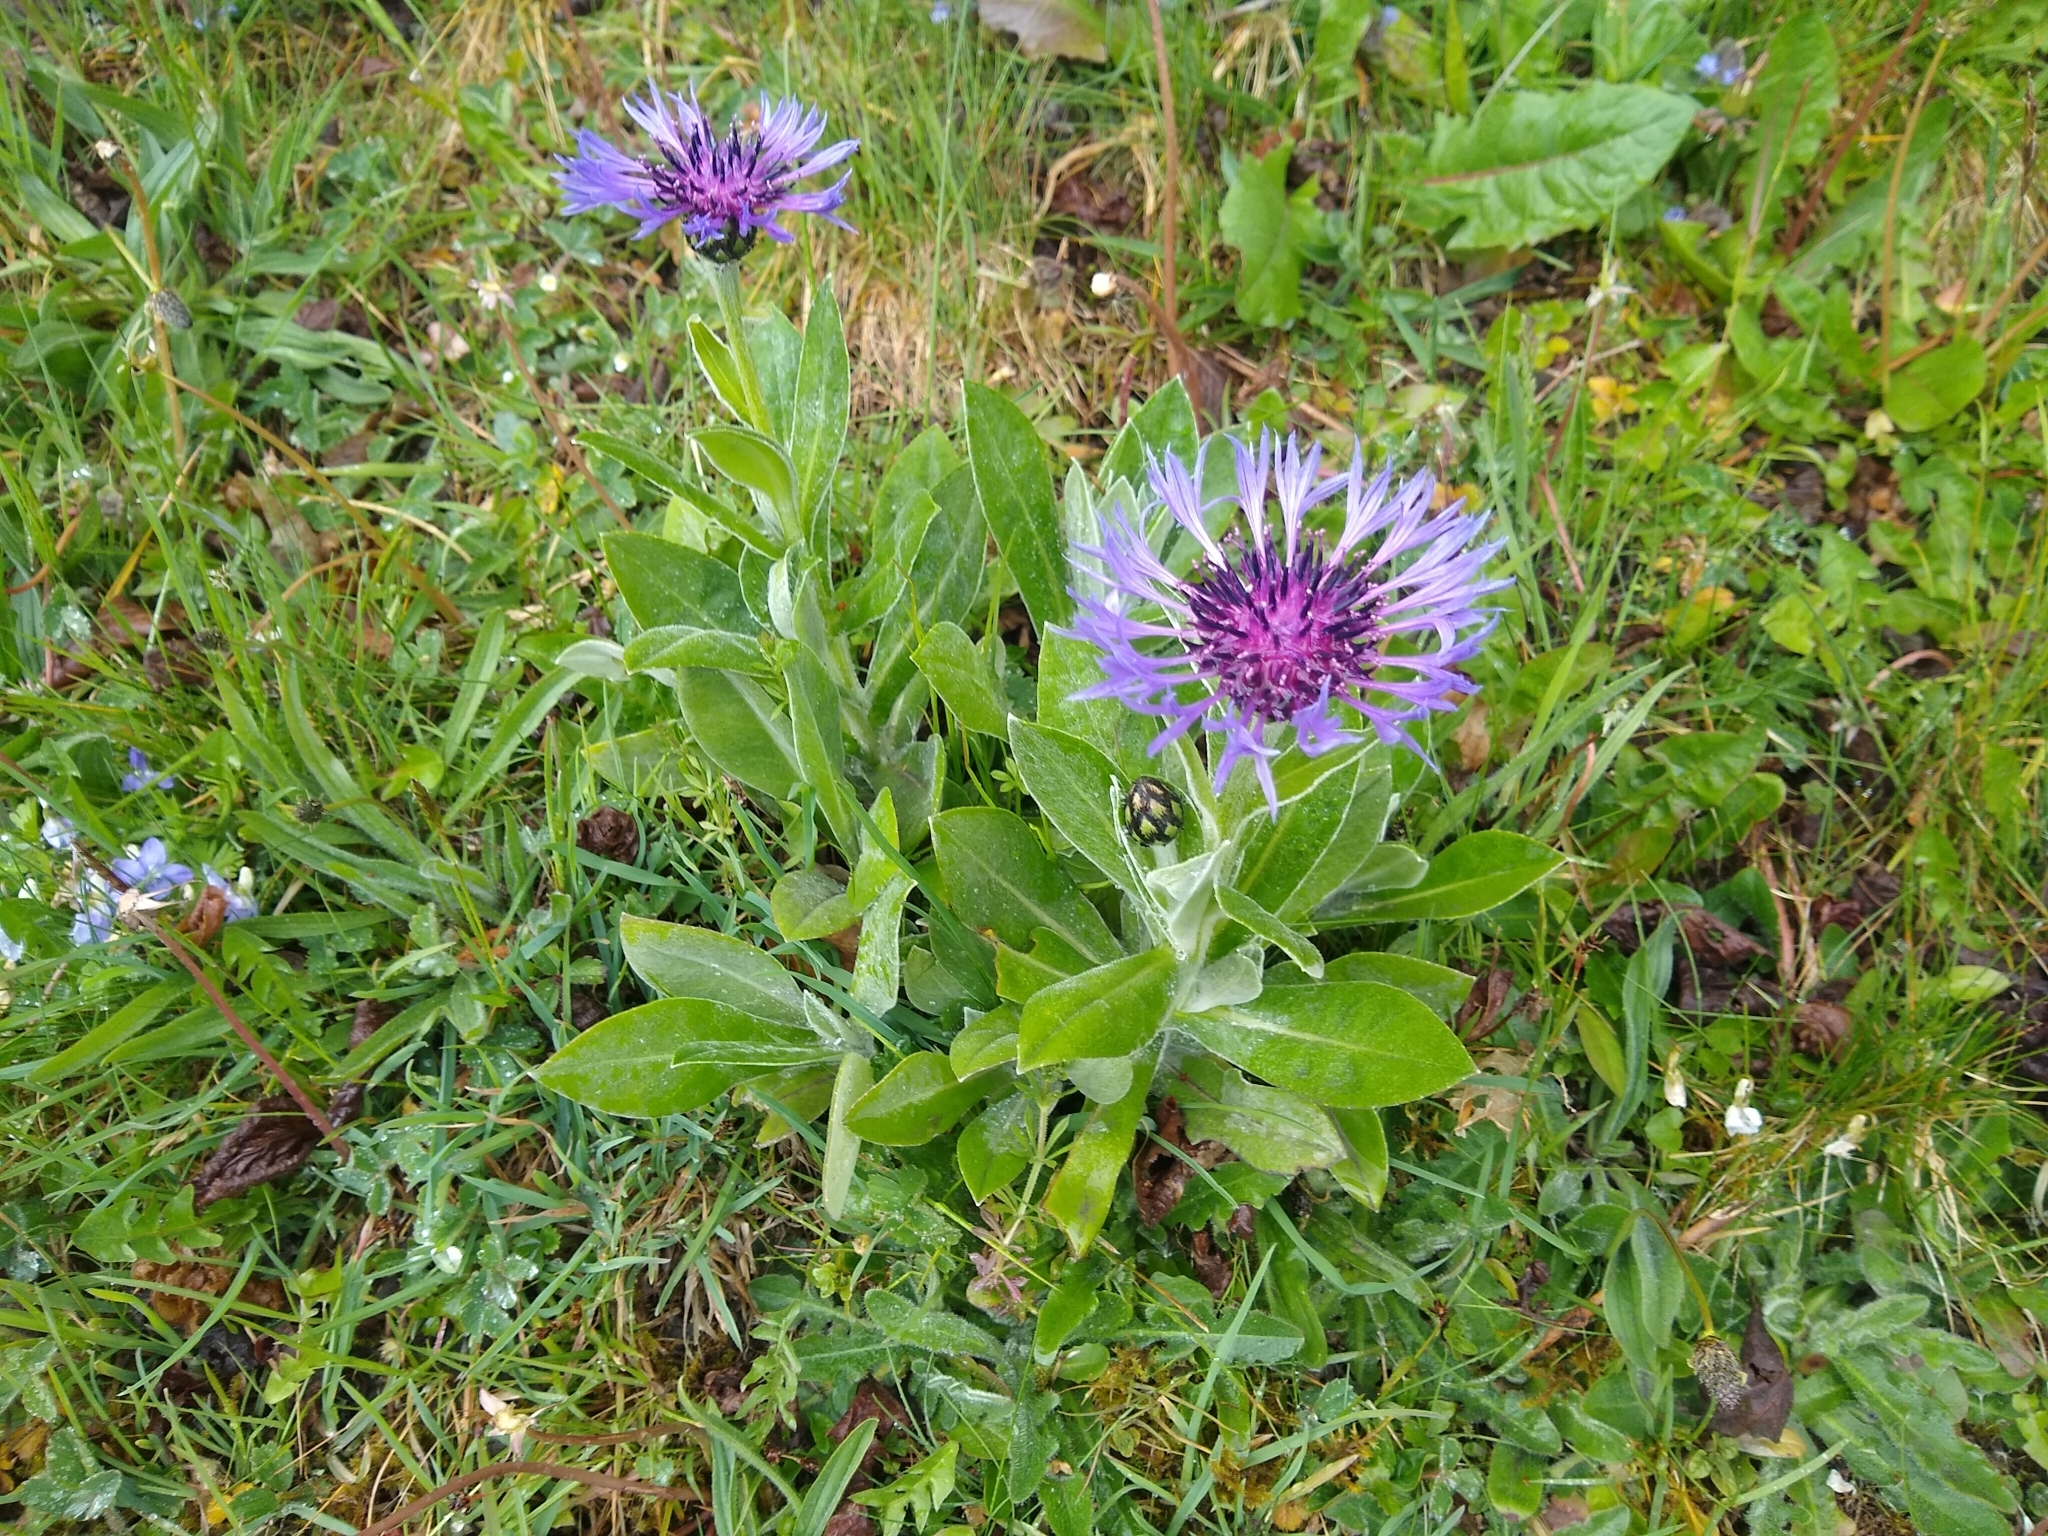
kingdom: Plantae
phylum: Tracheophyta
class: Magnoliopsida
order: Asterales
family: Asteraceae
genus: Centaurea
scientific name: Centaurea montana
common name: Perennial cornflower
